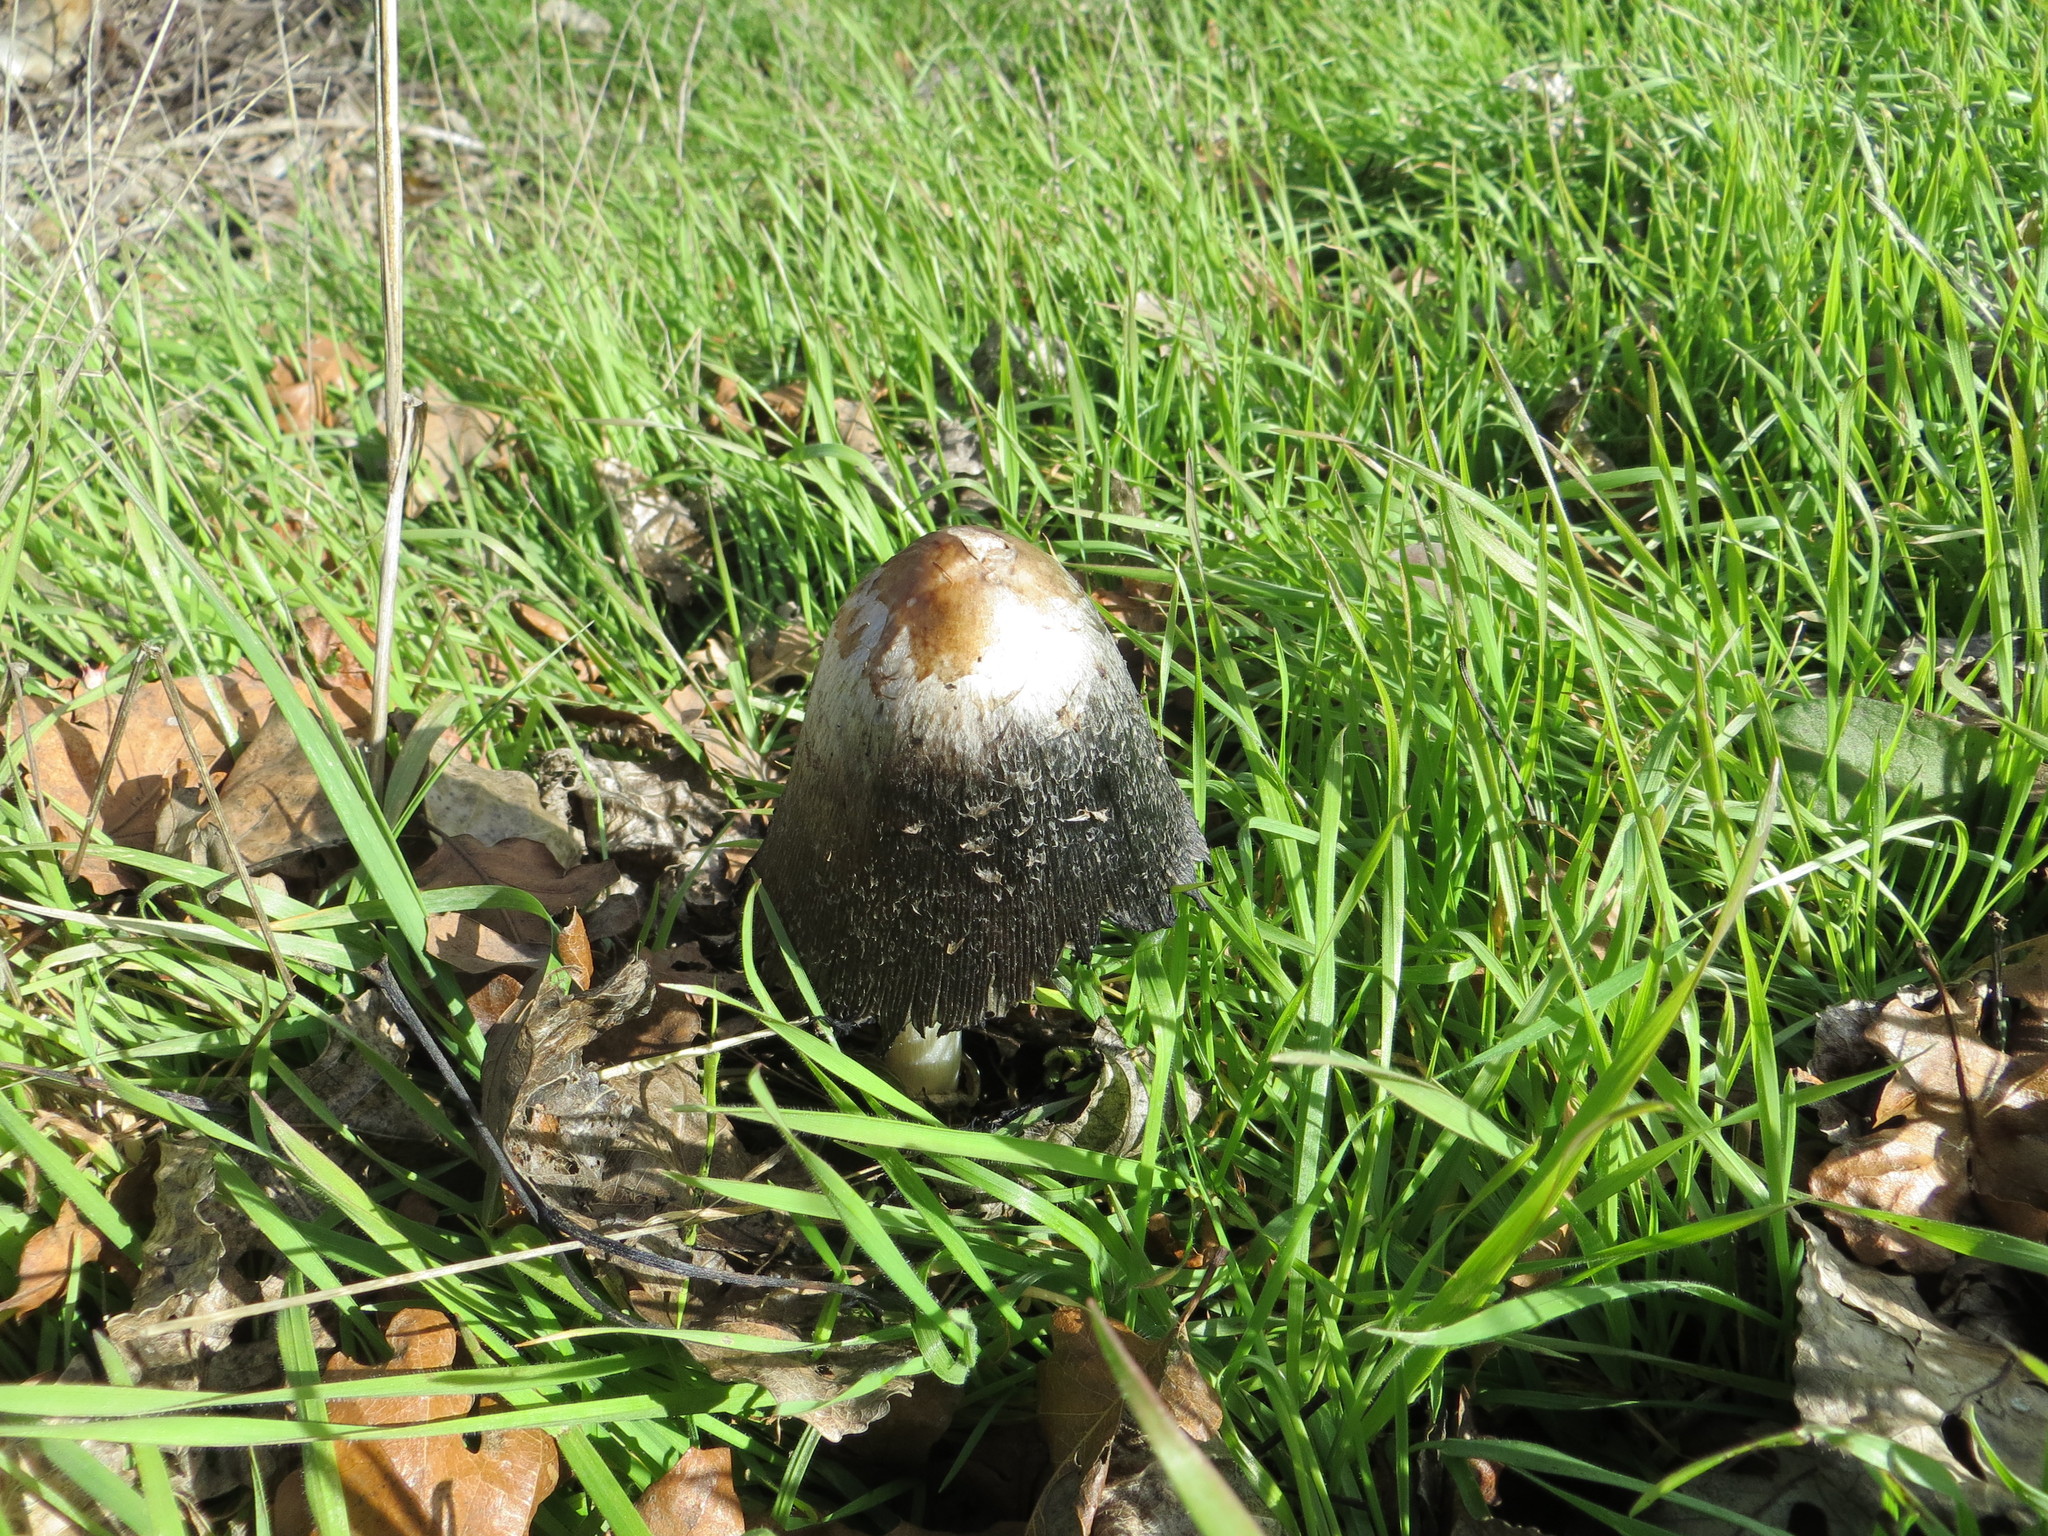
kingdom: Fungi
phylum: Basidiomycota
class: Agaricomycetes
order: Agaricales
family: Agaricaceae
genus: Coprinus
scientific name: Coprinus comatus
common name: Lawyer's wig
